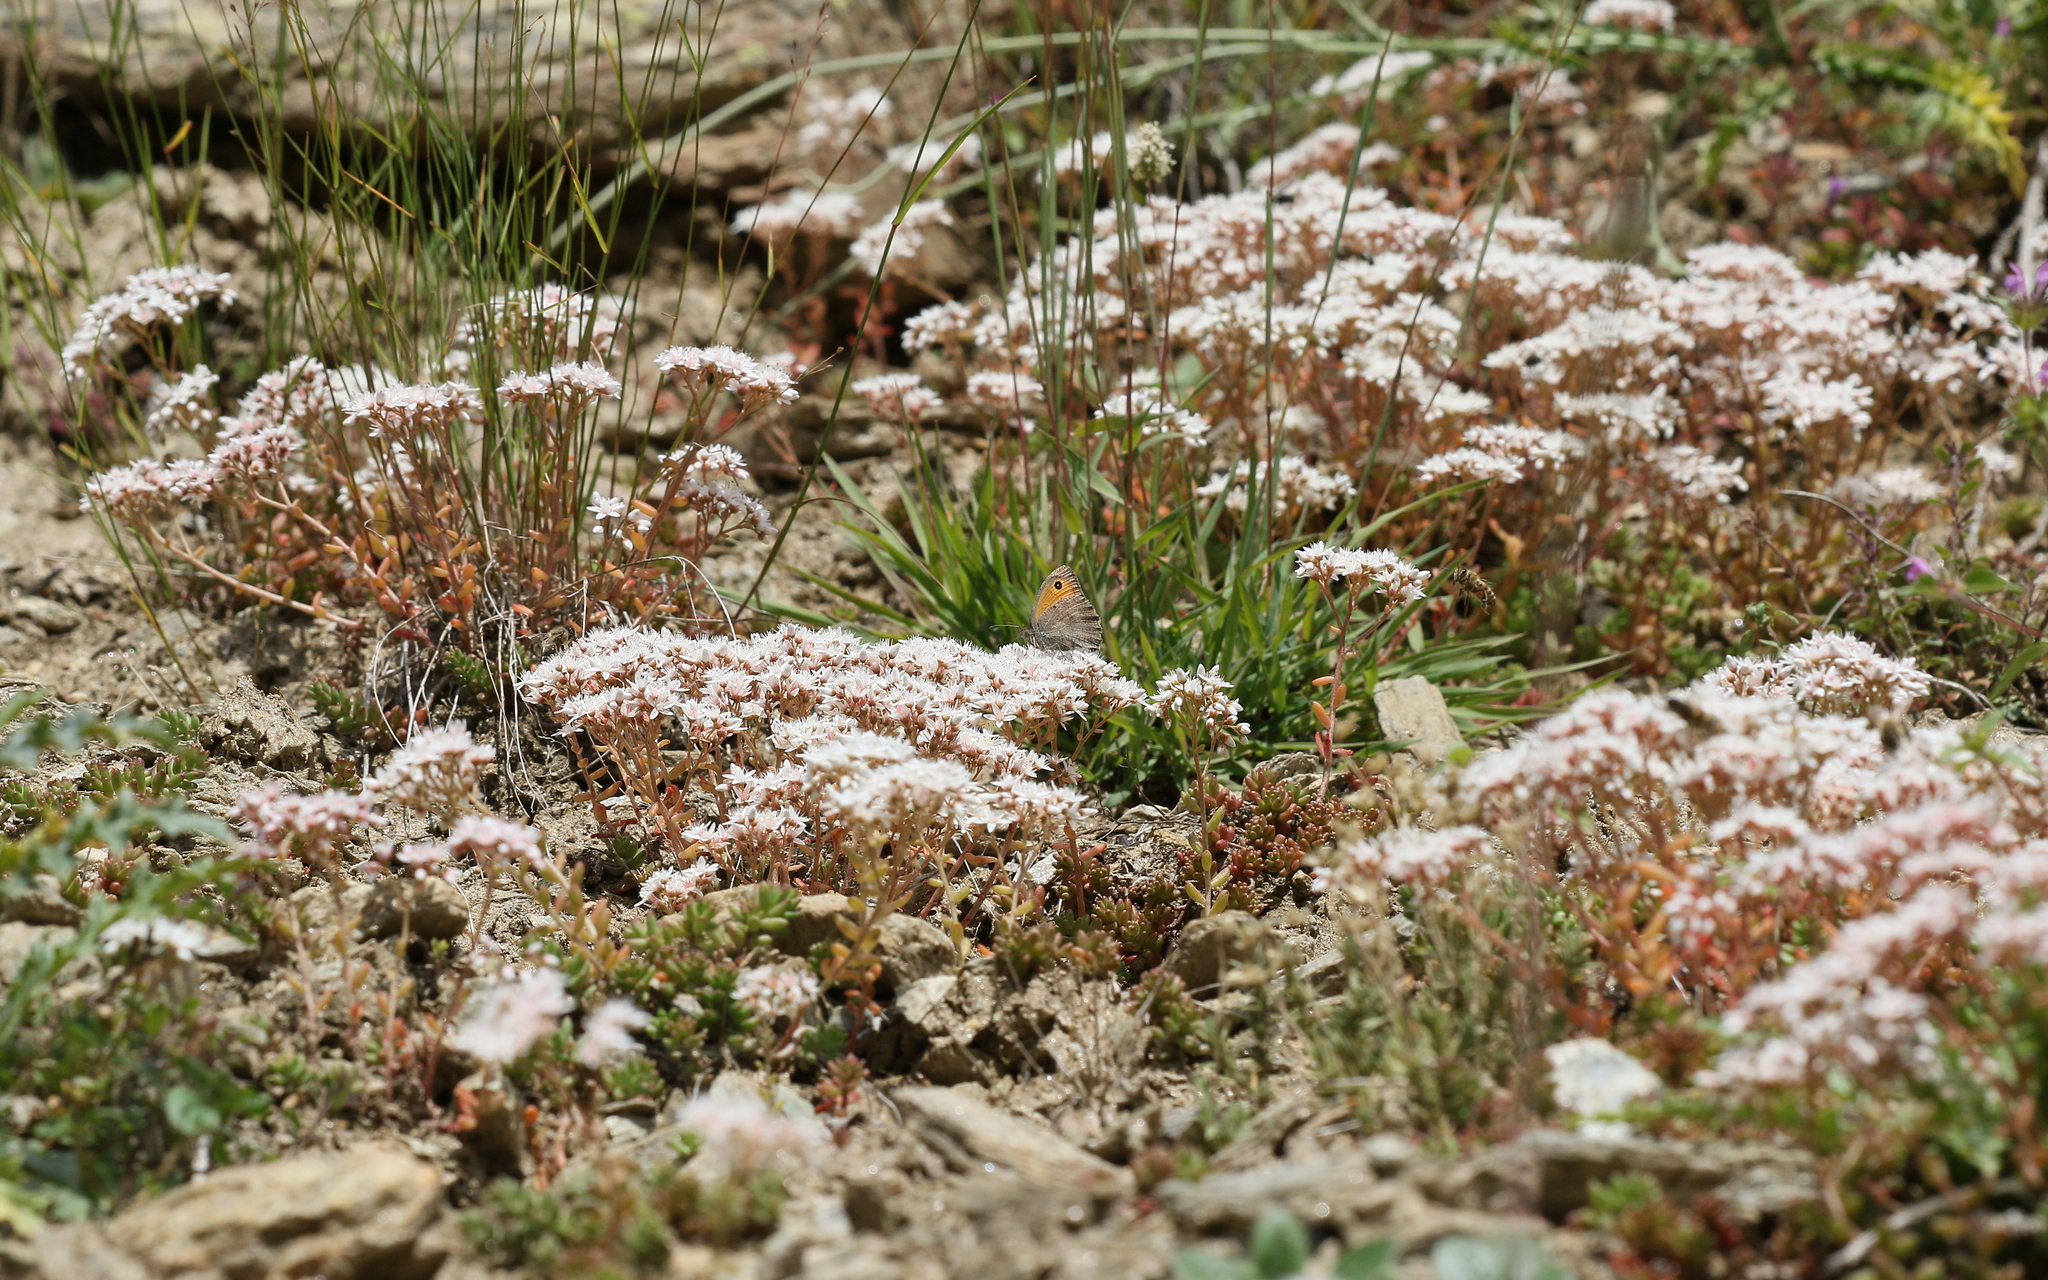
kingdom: Plantae
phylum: Tracheophyta
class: Magnoliopsida
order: Saxifragales
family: Crassulaceae
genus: Sedum
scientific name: Sedum album
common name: White stonecrop
